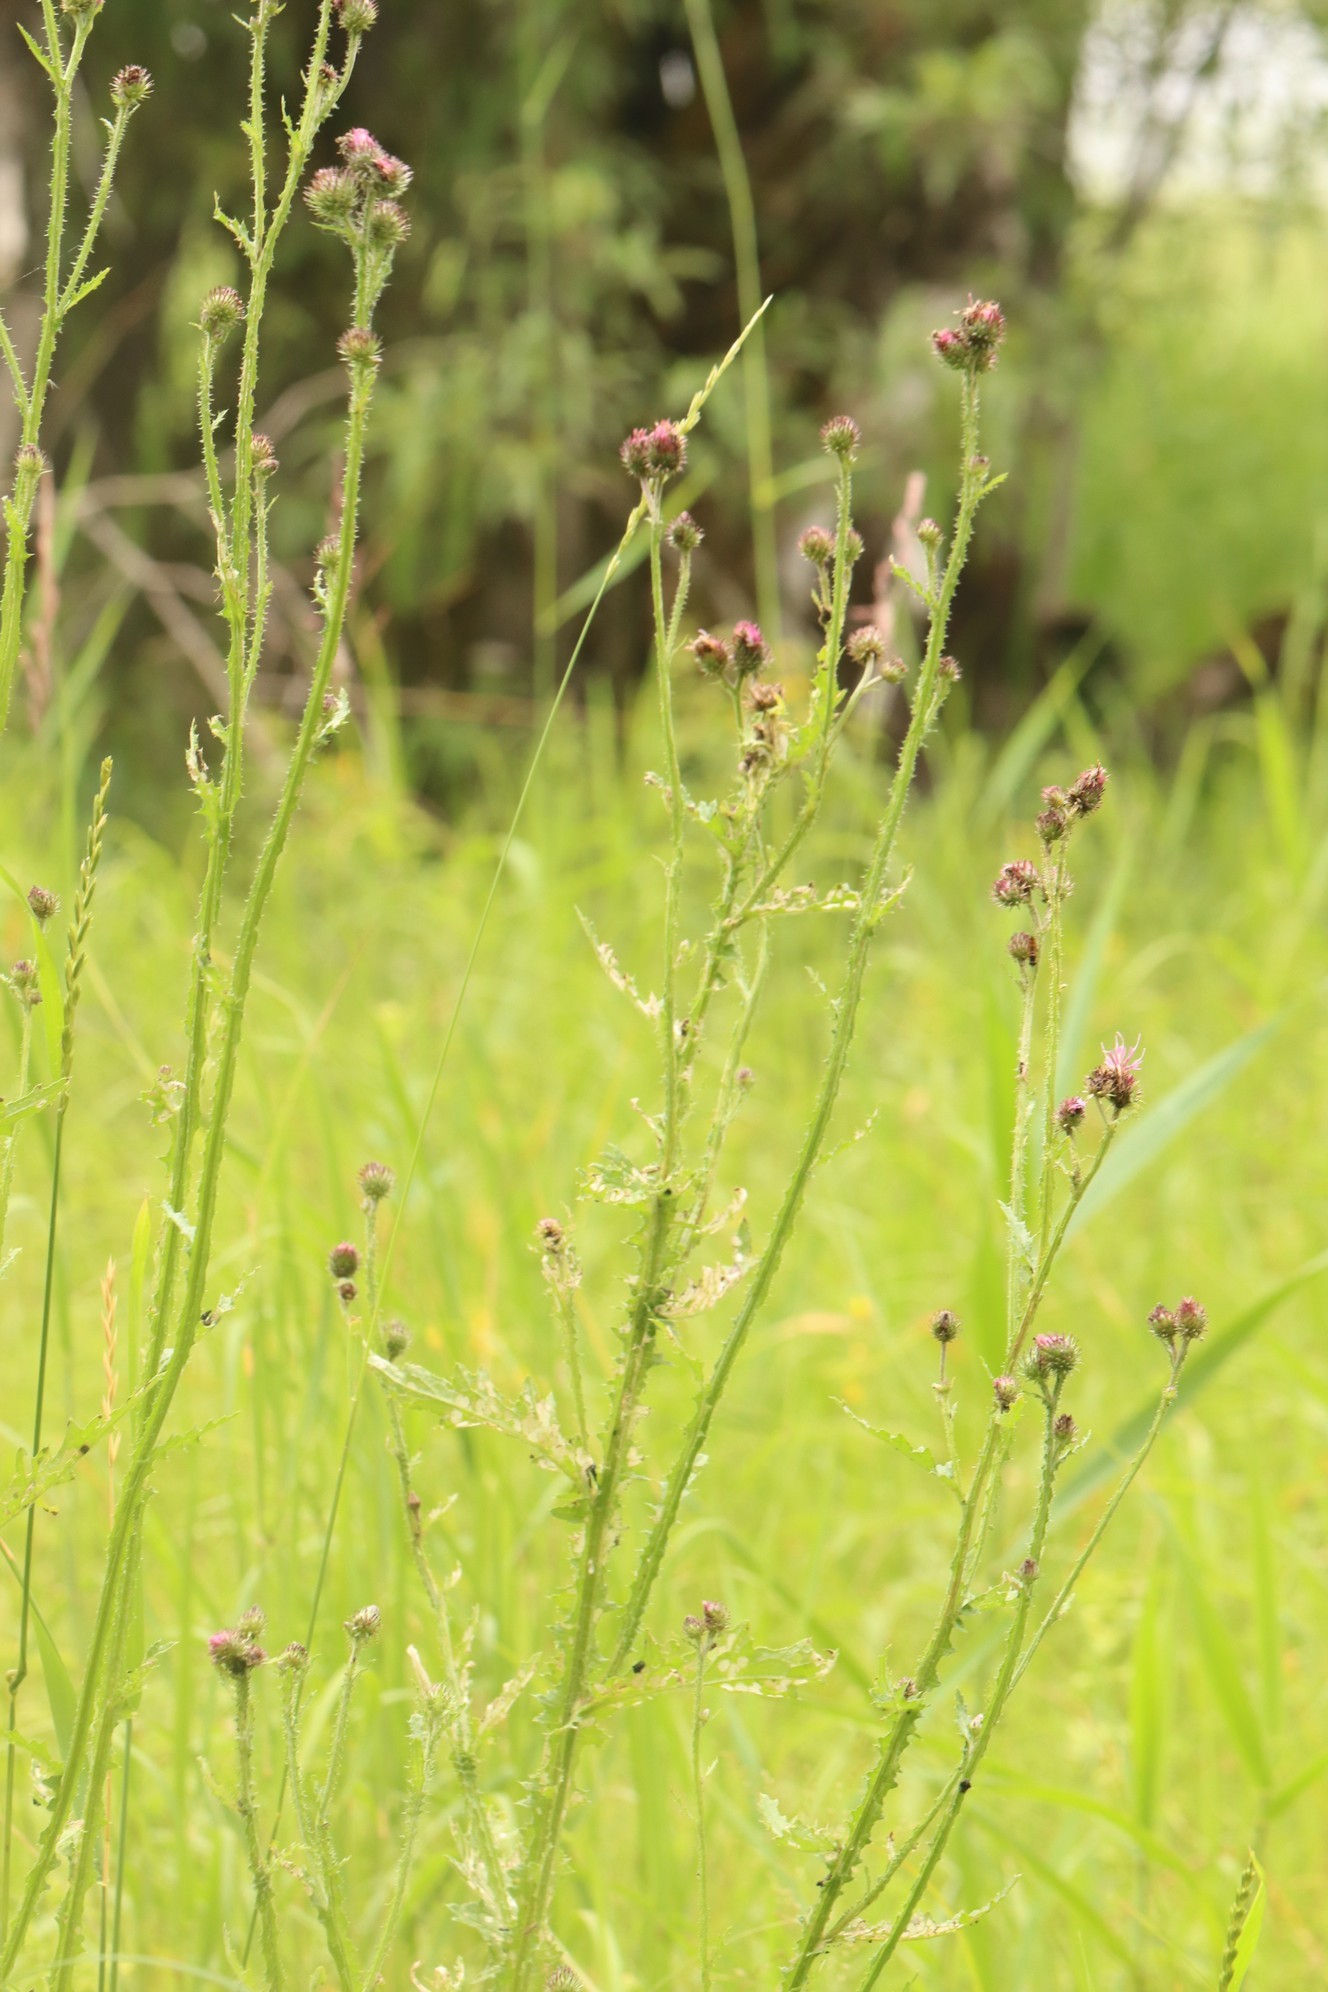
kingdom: Plantae
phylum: Tracheophyta
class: Magnoliopsida
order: Asterales
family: Asteraceae
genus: Carduus
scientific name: Carduus crispus
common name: Welted thistle
